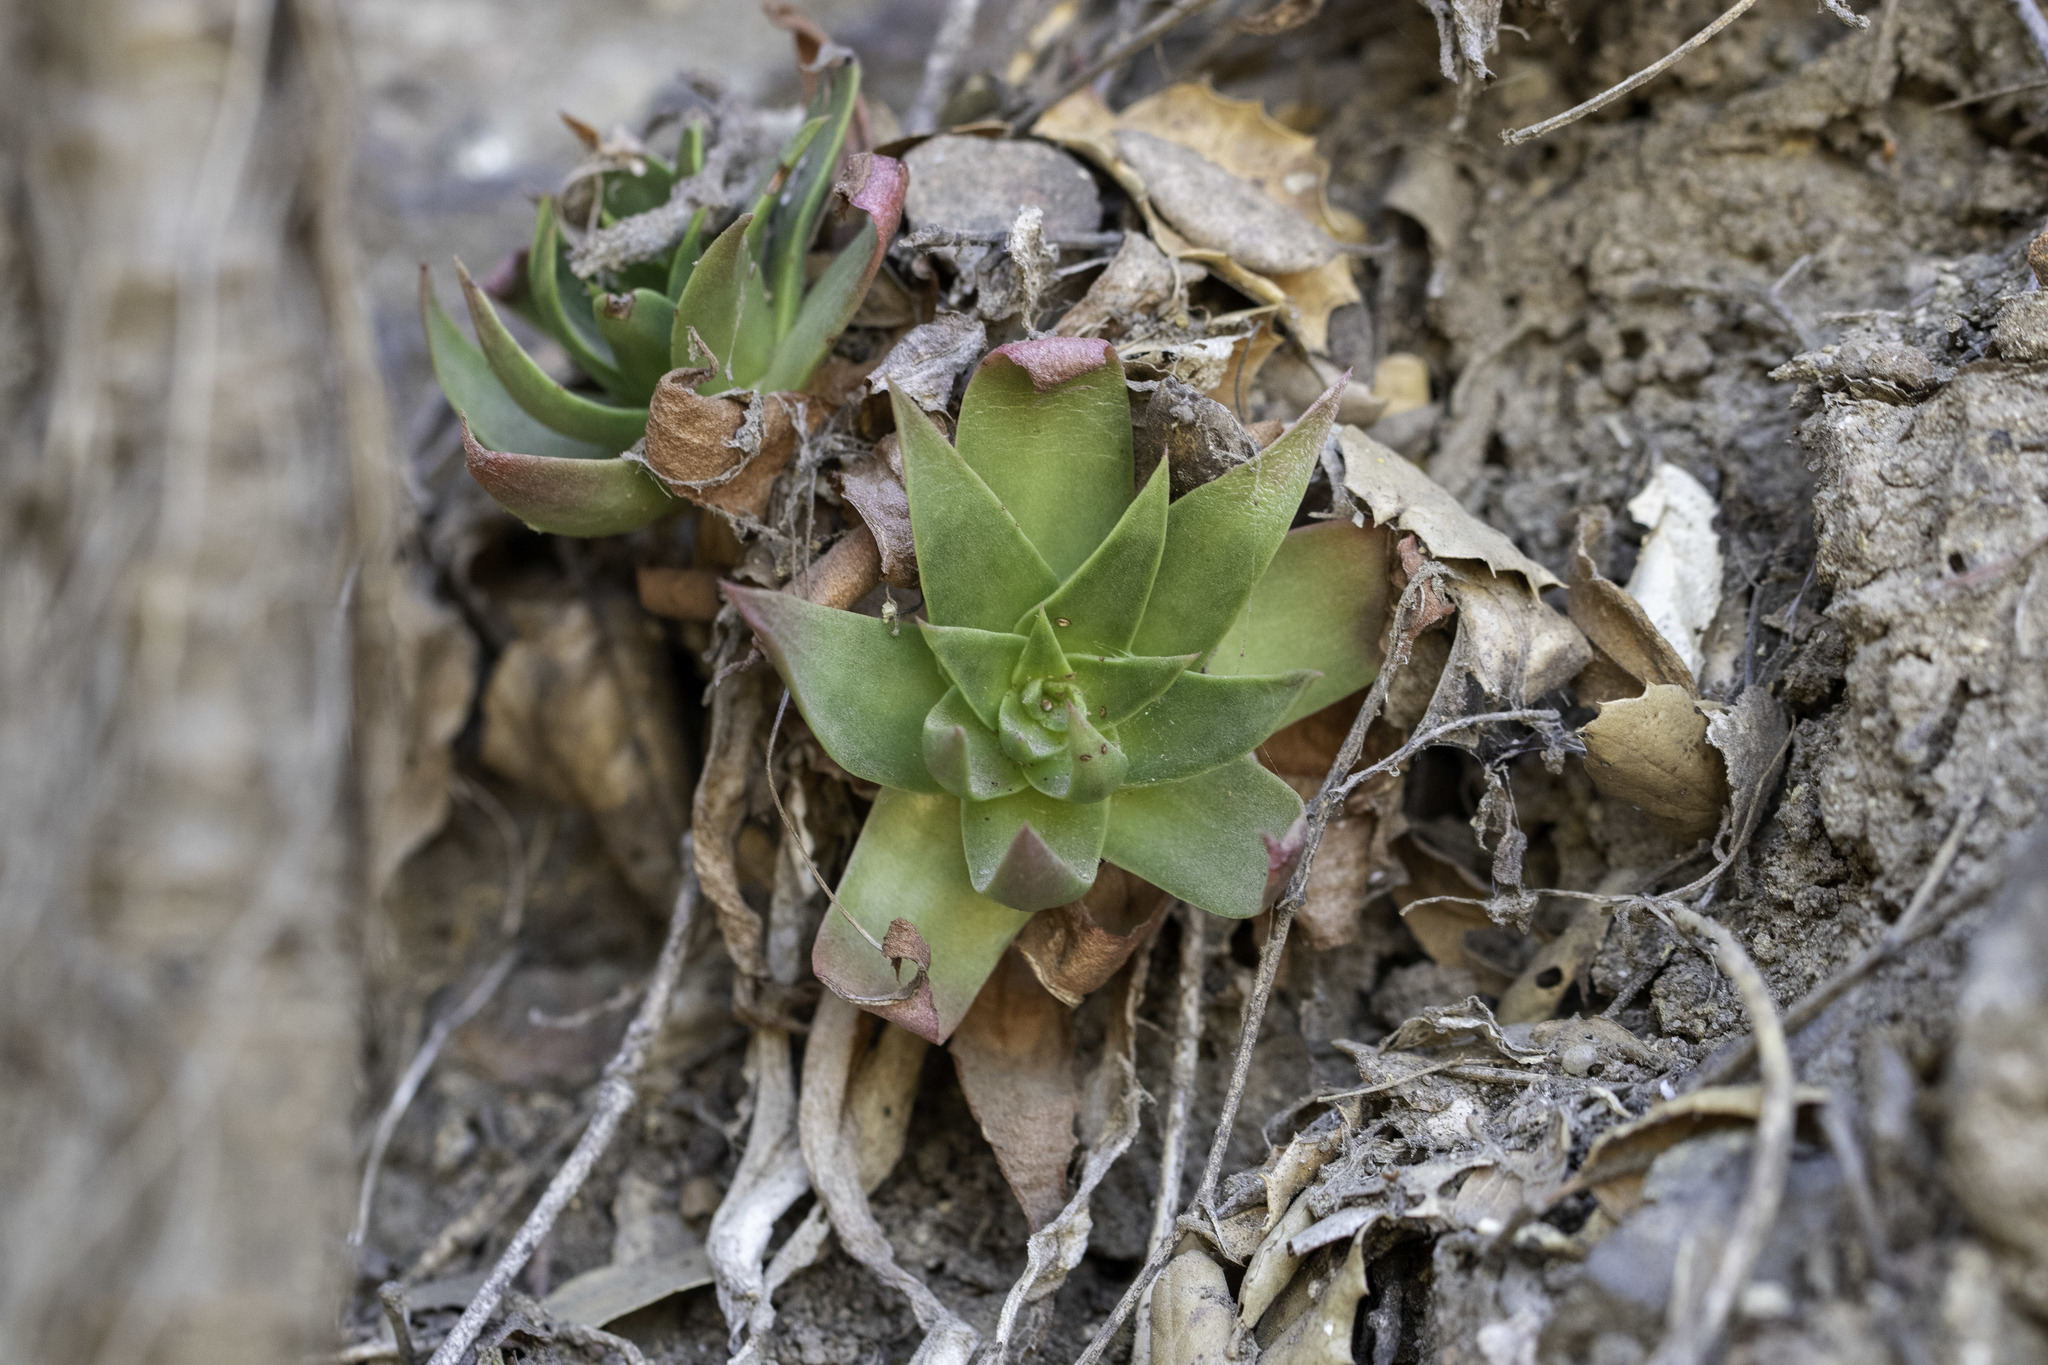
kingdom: Plantae
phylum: Tracheophyta
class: Magnoliopsida
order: Saxifragales
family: Crassulaceae
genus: Dudleya
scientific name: Dudleya candelabrum
